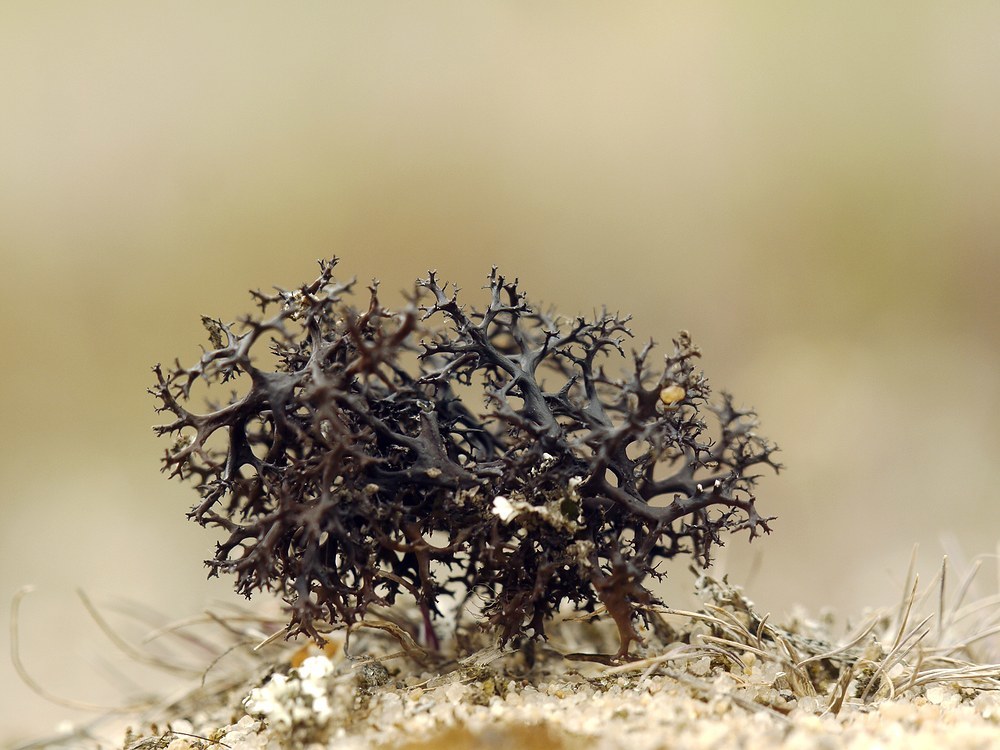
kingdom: Fungi
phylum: Ascomycota
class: Lecanoromycetes
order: Lecanorales
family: Parmeliaceae
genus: Cetraria
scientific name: Cetraria steppae
